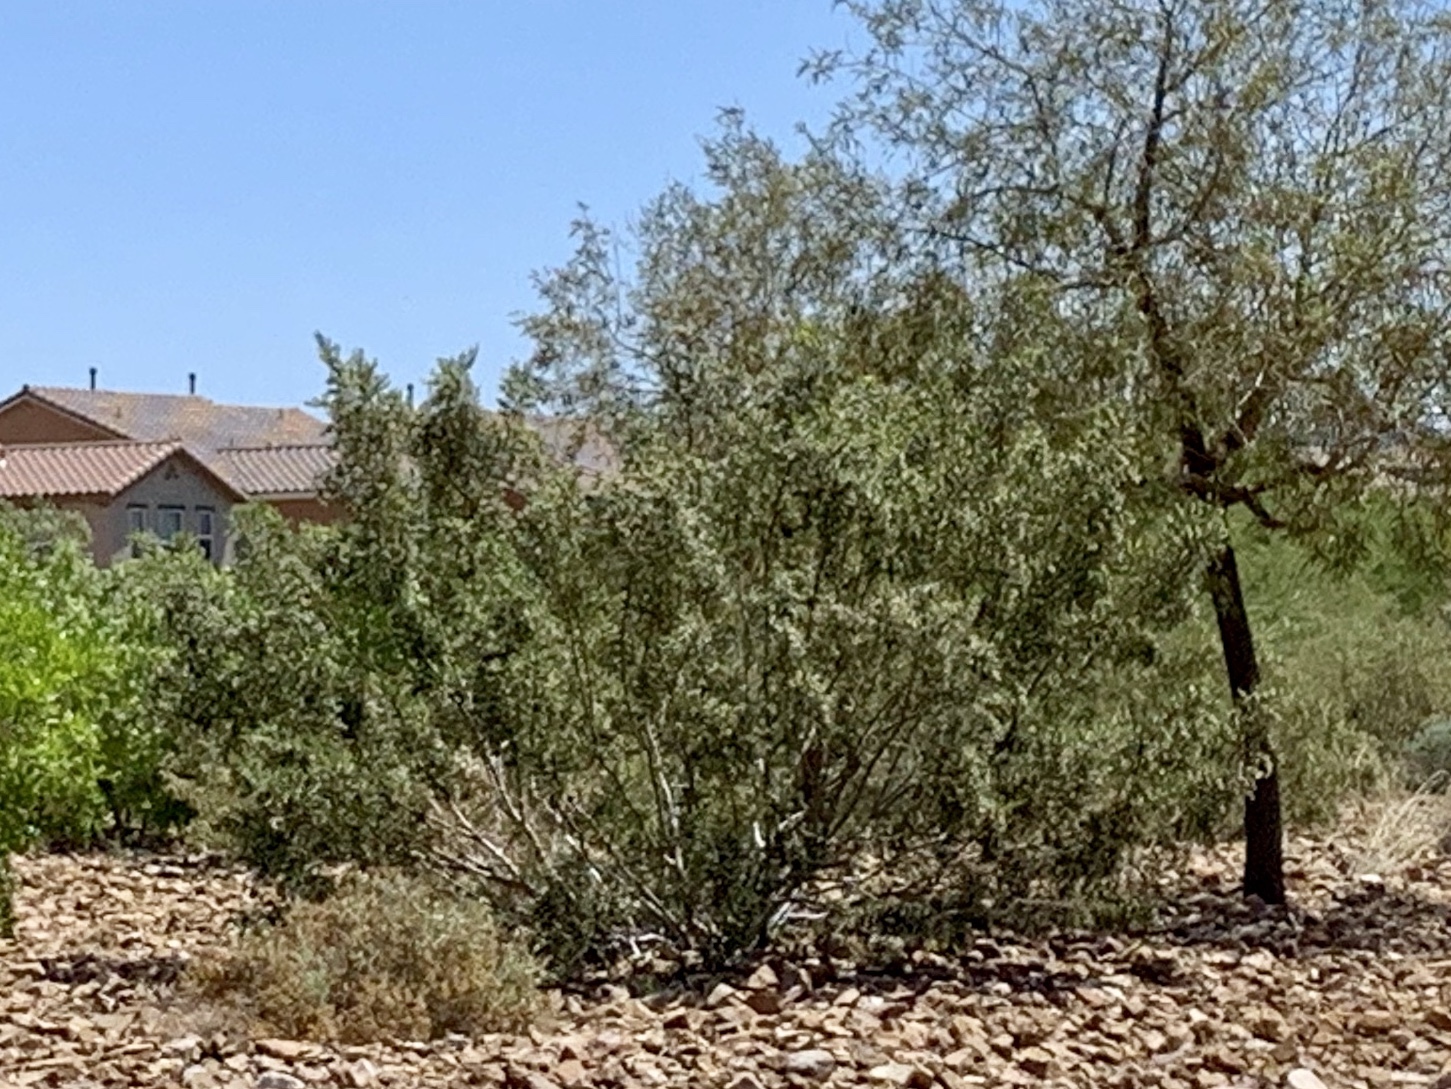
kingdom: Plantae
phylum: Tracheophyta
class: Magnoliopsida
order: Zygophyllales
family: Zygophyllaceae
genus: Larrea
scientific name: Larrea tridentata
